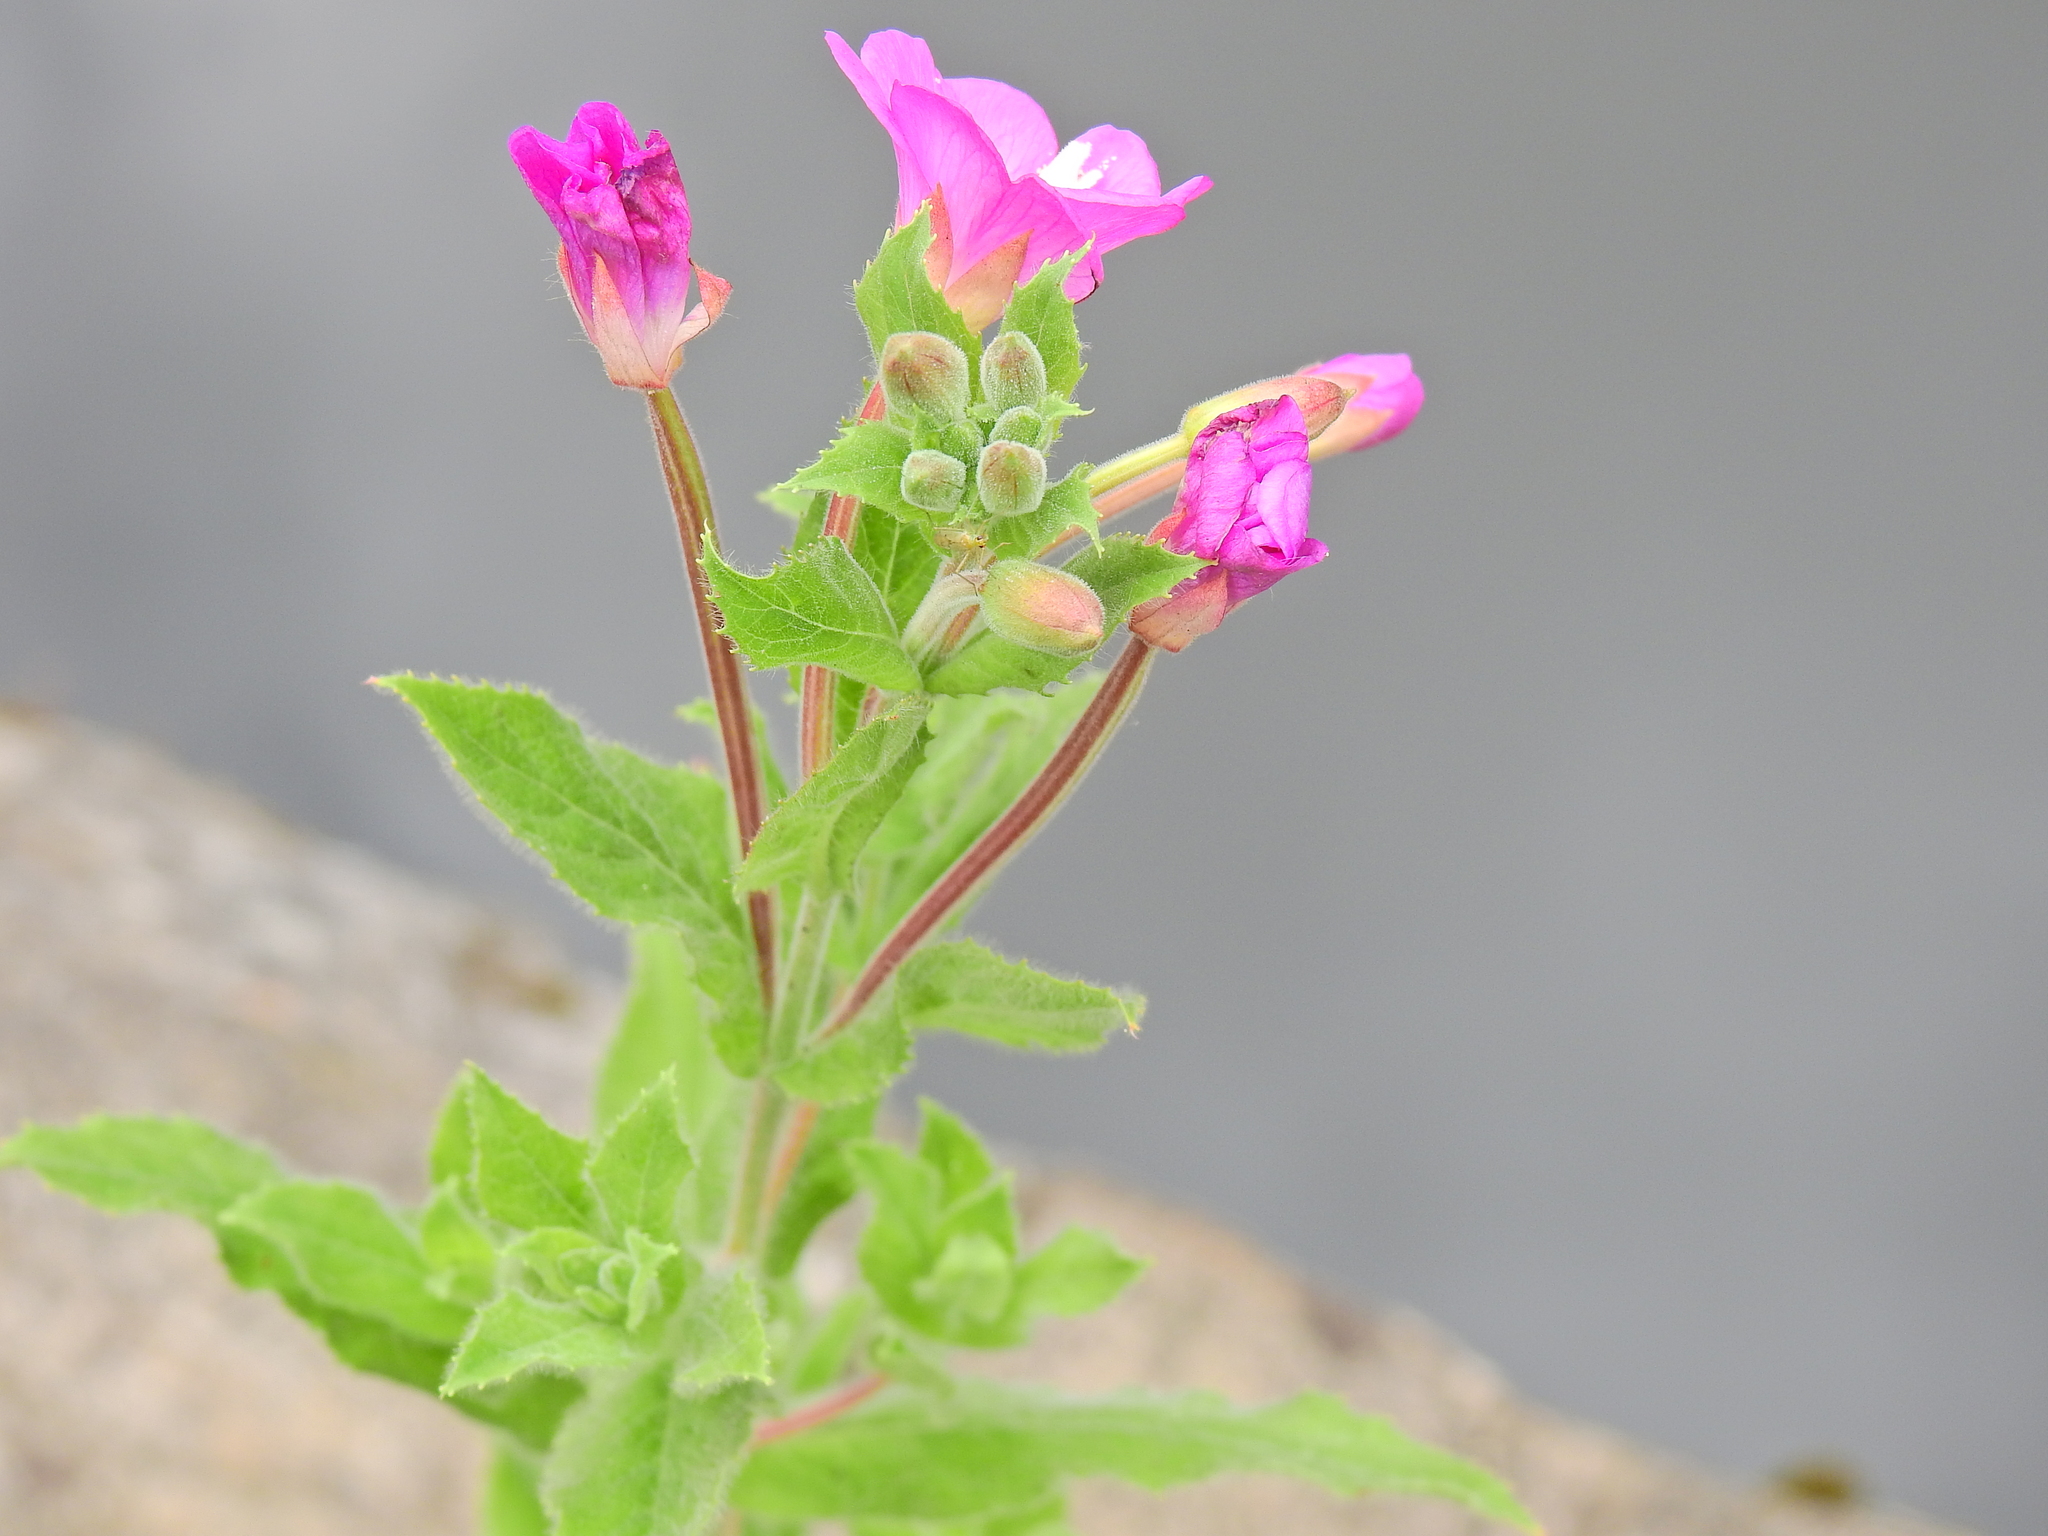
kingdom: Plantae
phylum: Tracheophyta
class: Magnoliopsida
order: Myrtales
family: Onagraceae
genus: Epilobium
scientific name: Epilobium hirsutum
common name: Great willowherb
